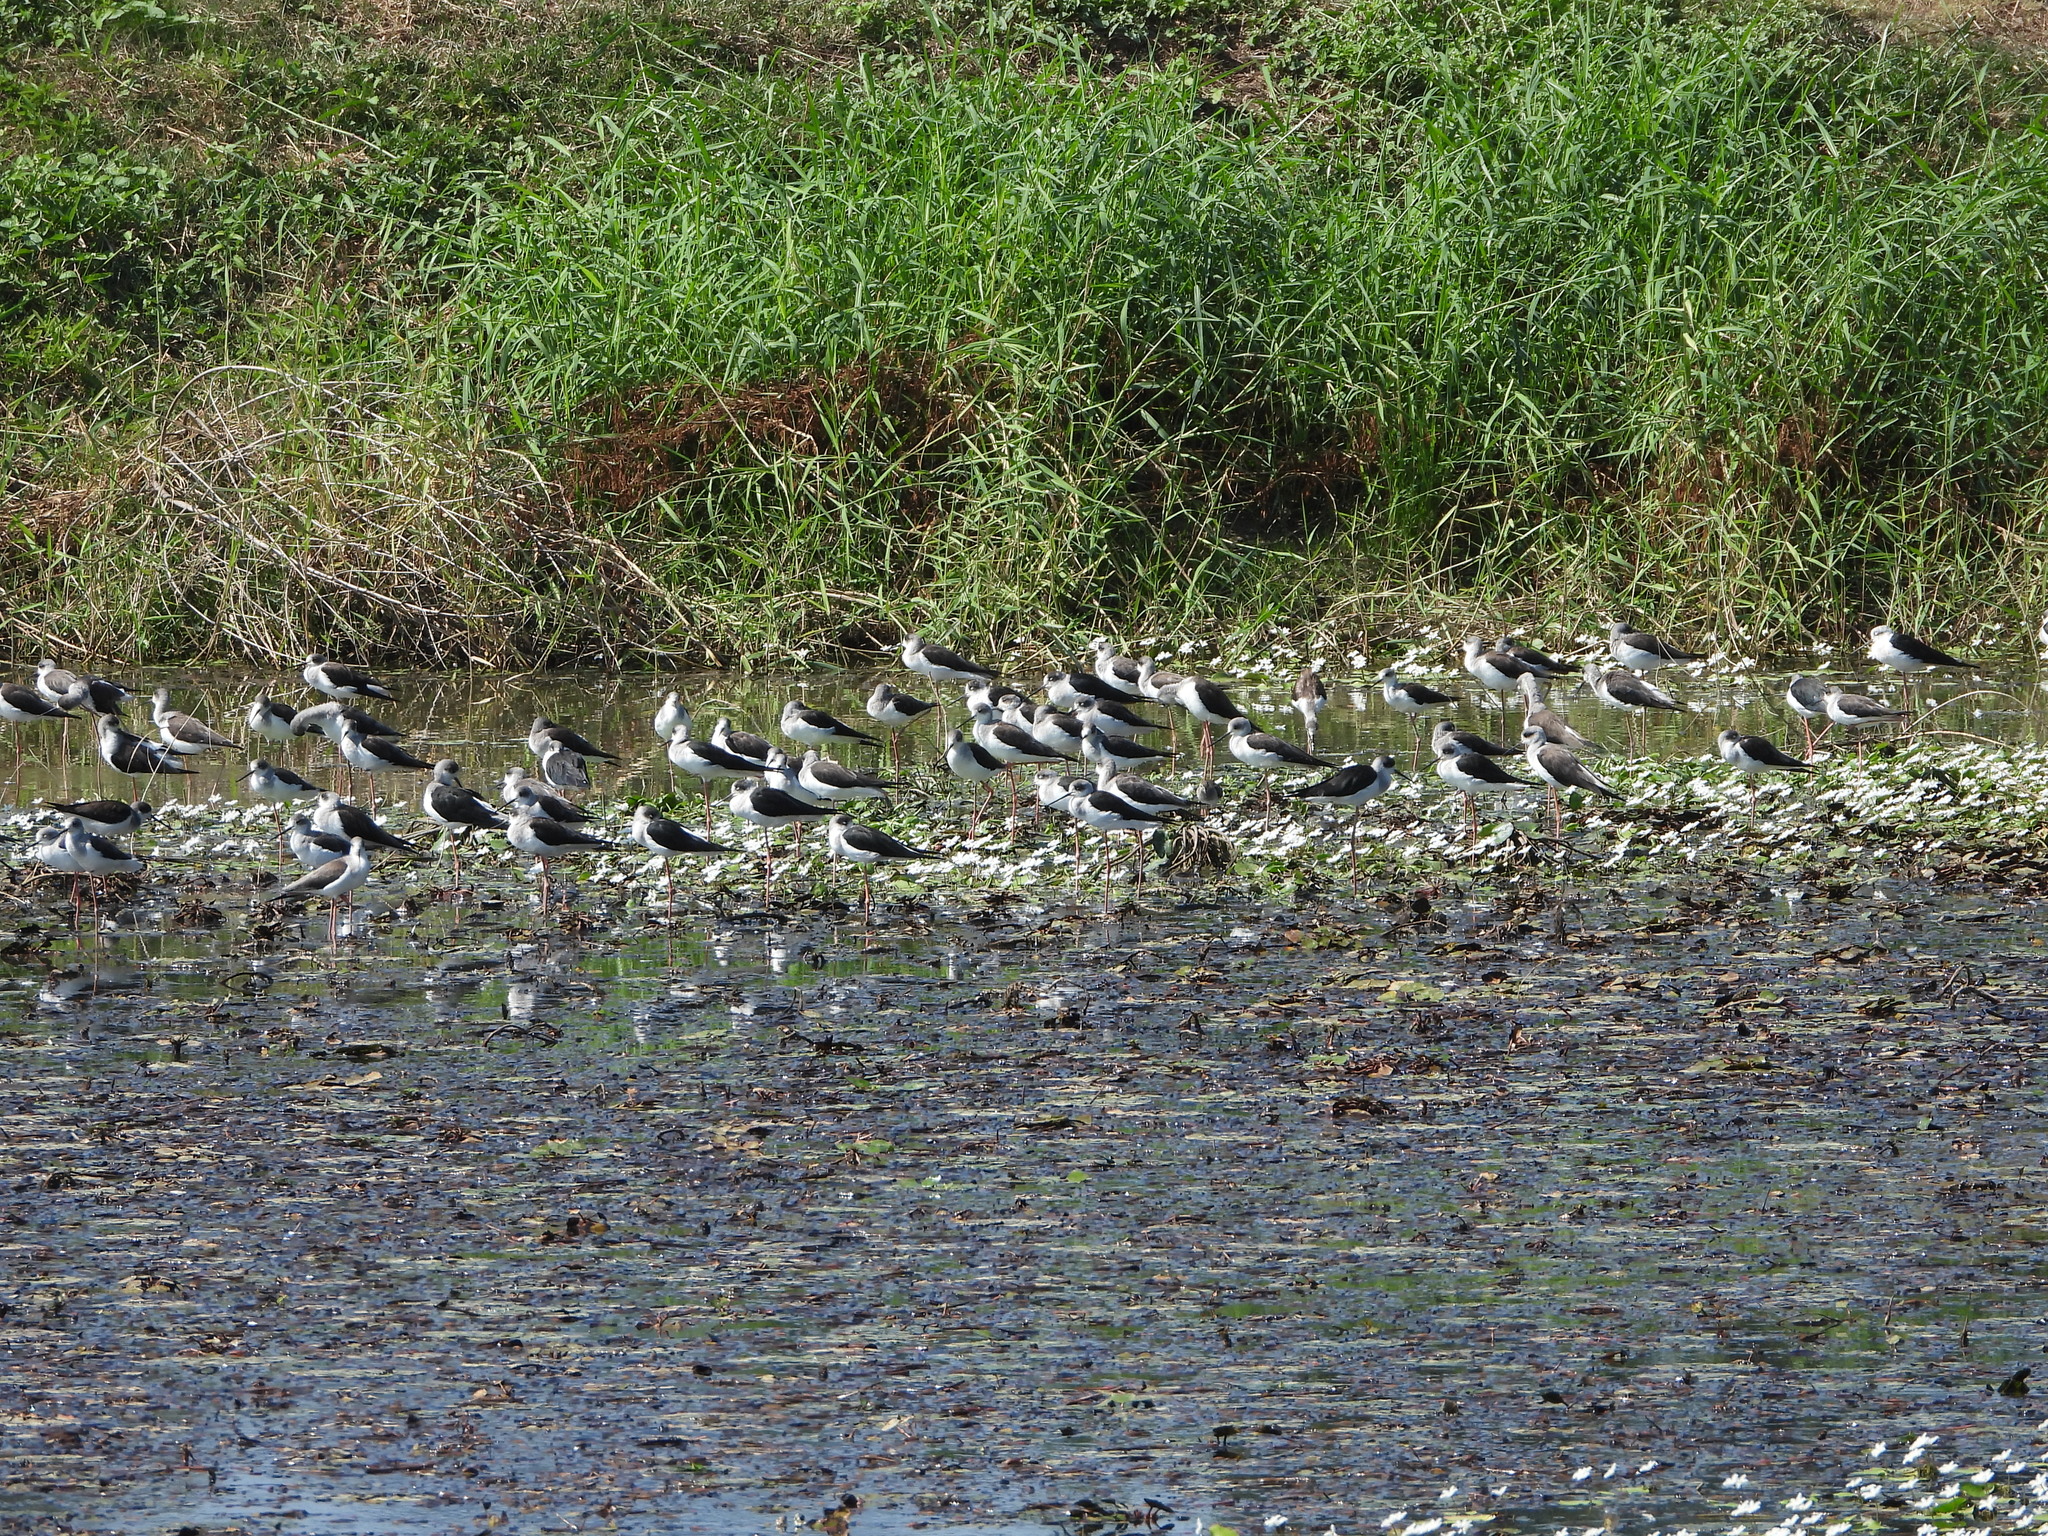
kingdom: Animalia
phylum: Chordata
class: Aves
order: Charadriiformes
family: Recurvirostridae
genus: Himantopus
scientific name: Himantopus himantopus
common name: Black-winged stilt
